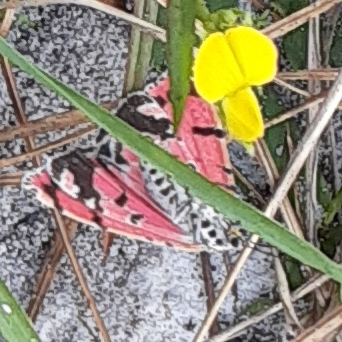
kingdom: Animalia
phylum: Arthropoda
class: Insecta
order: Lepidoptera
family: Erebidae
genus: Utetheisa
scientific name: Utetheisa ornatrix
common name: Beautiful utetheisa
